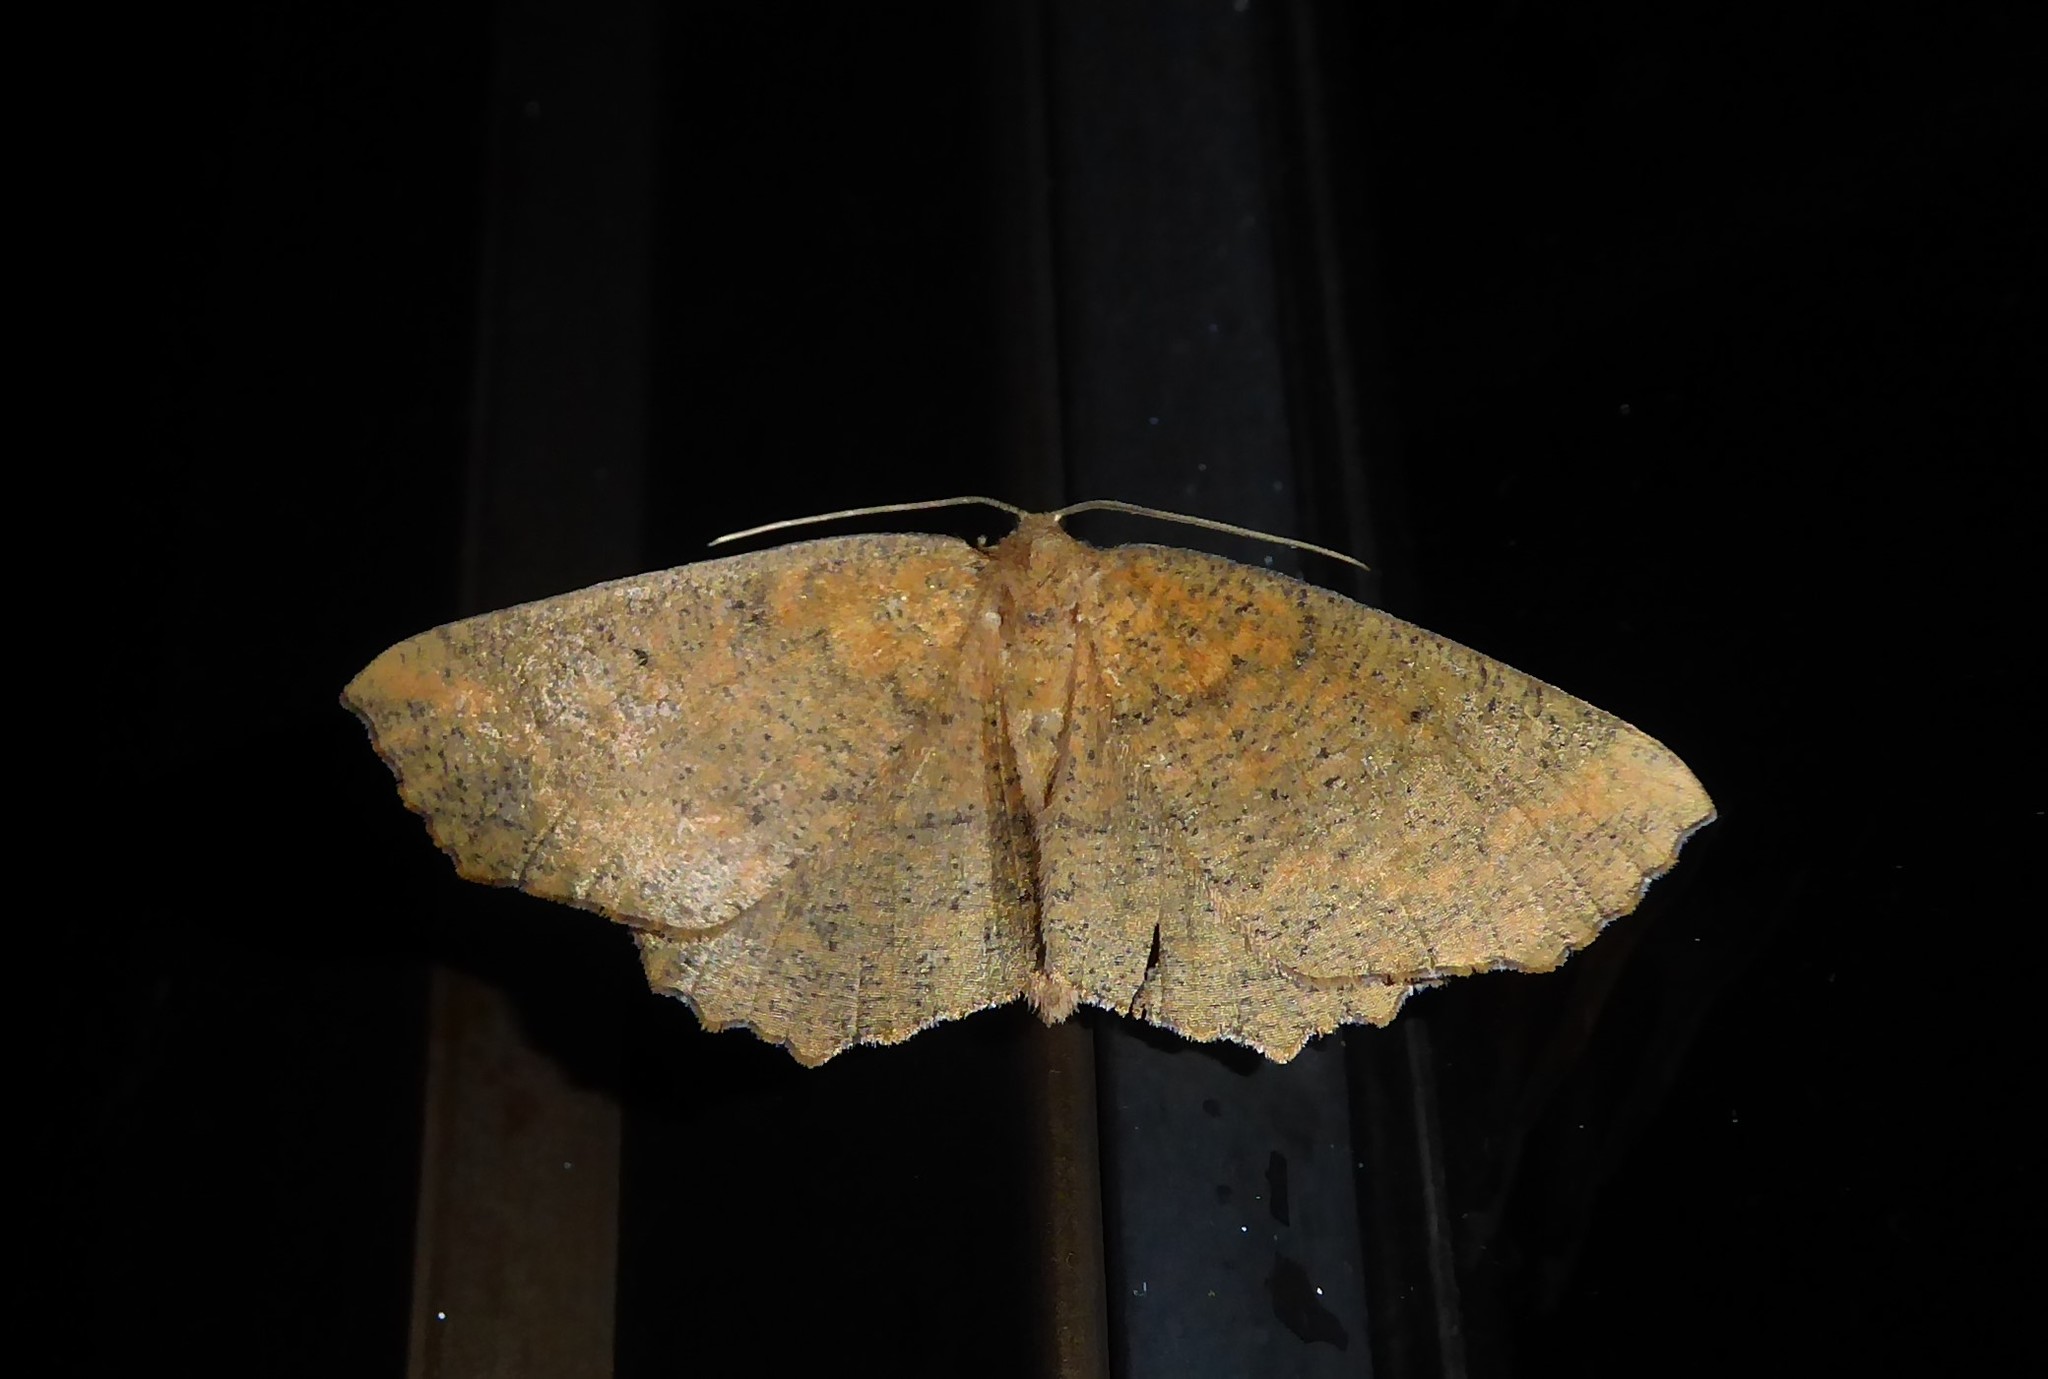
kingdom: Animalia
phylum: Arthropoda
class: Insecta
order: Lepidoptera
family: Geometridae
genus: Xyridacma
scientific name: Xyridacma ustaria
